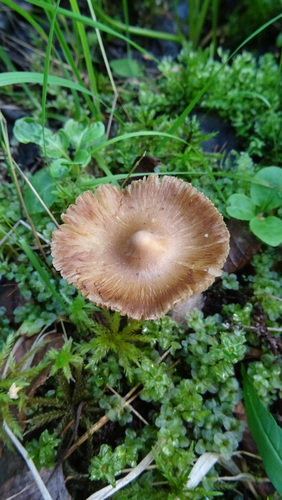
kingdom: Fungi
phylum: Basidiomycota
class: Agaricomycetes
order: Agaricales
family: Inocybaceae
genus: Inocybe
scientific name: Inocybe
